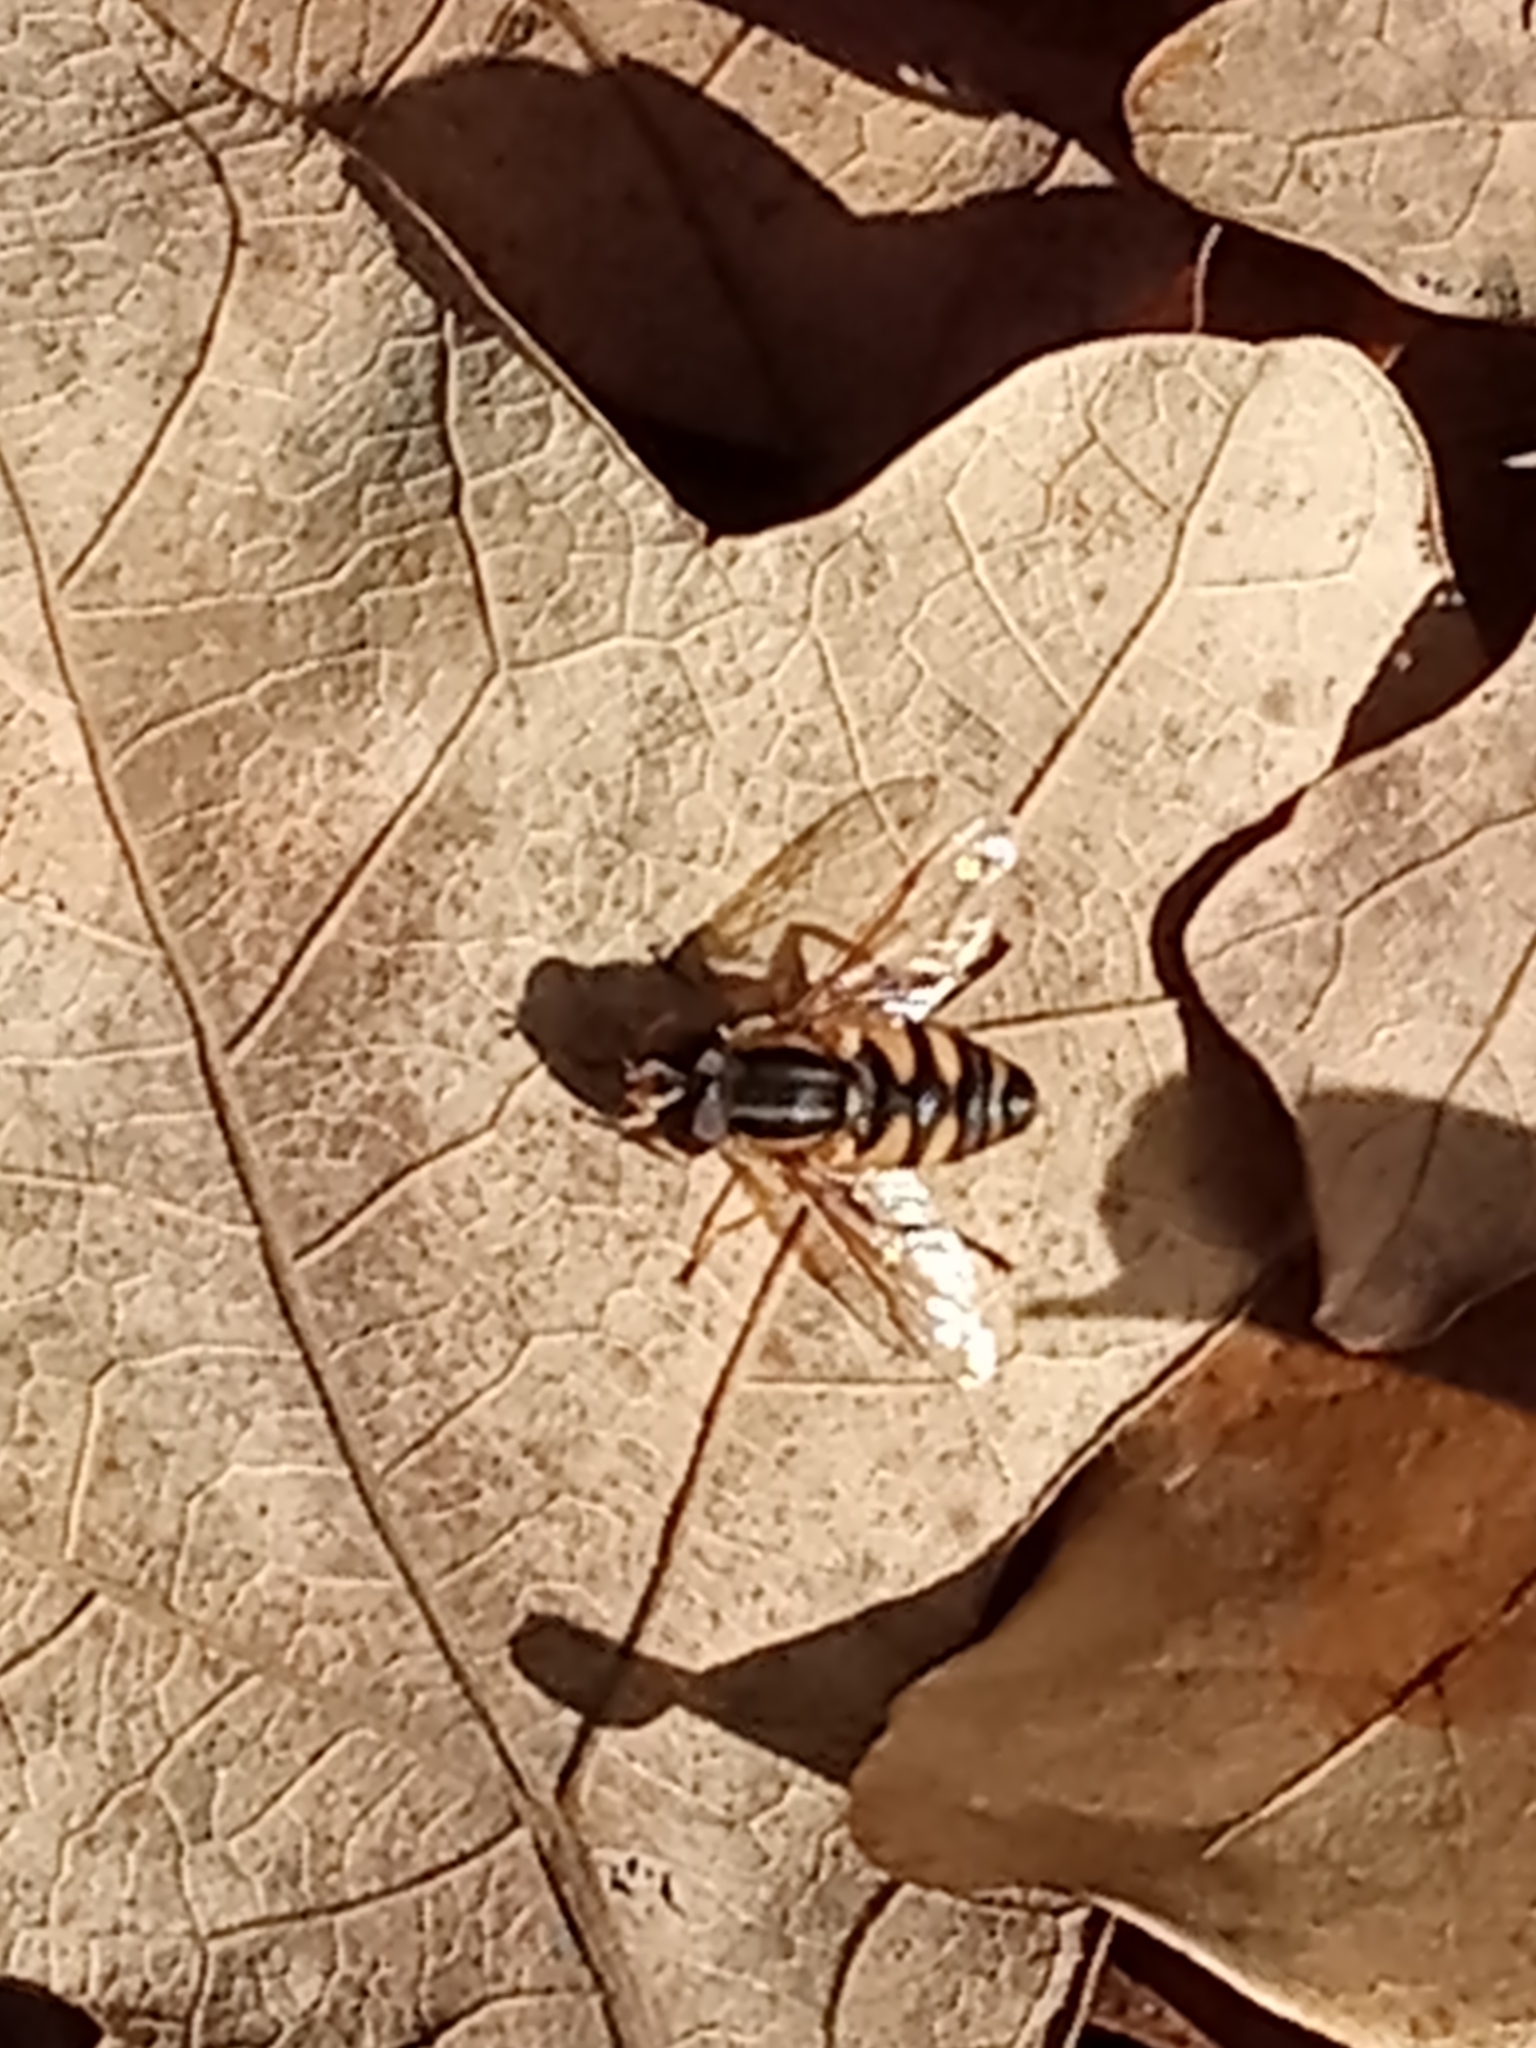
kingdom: Animalia
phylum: Arthropoda
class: Insecta
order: Diptera
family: Syrphidae
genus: Helophilus
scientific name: Helophilus fasciatus
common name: Narrow-headed marsh fly
